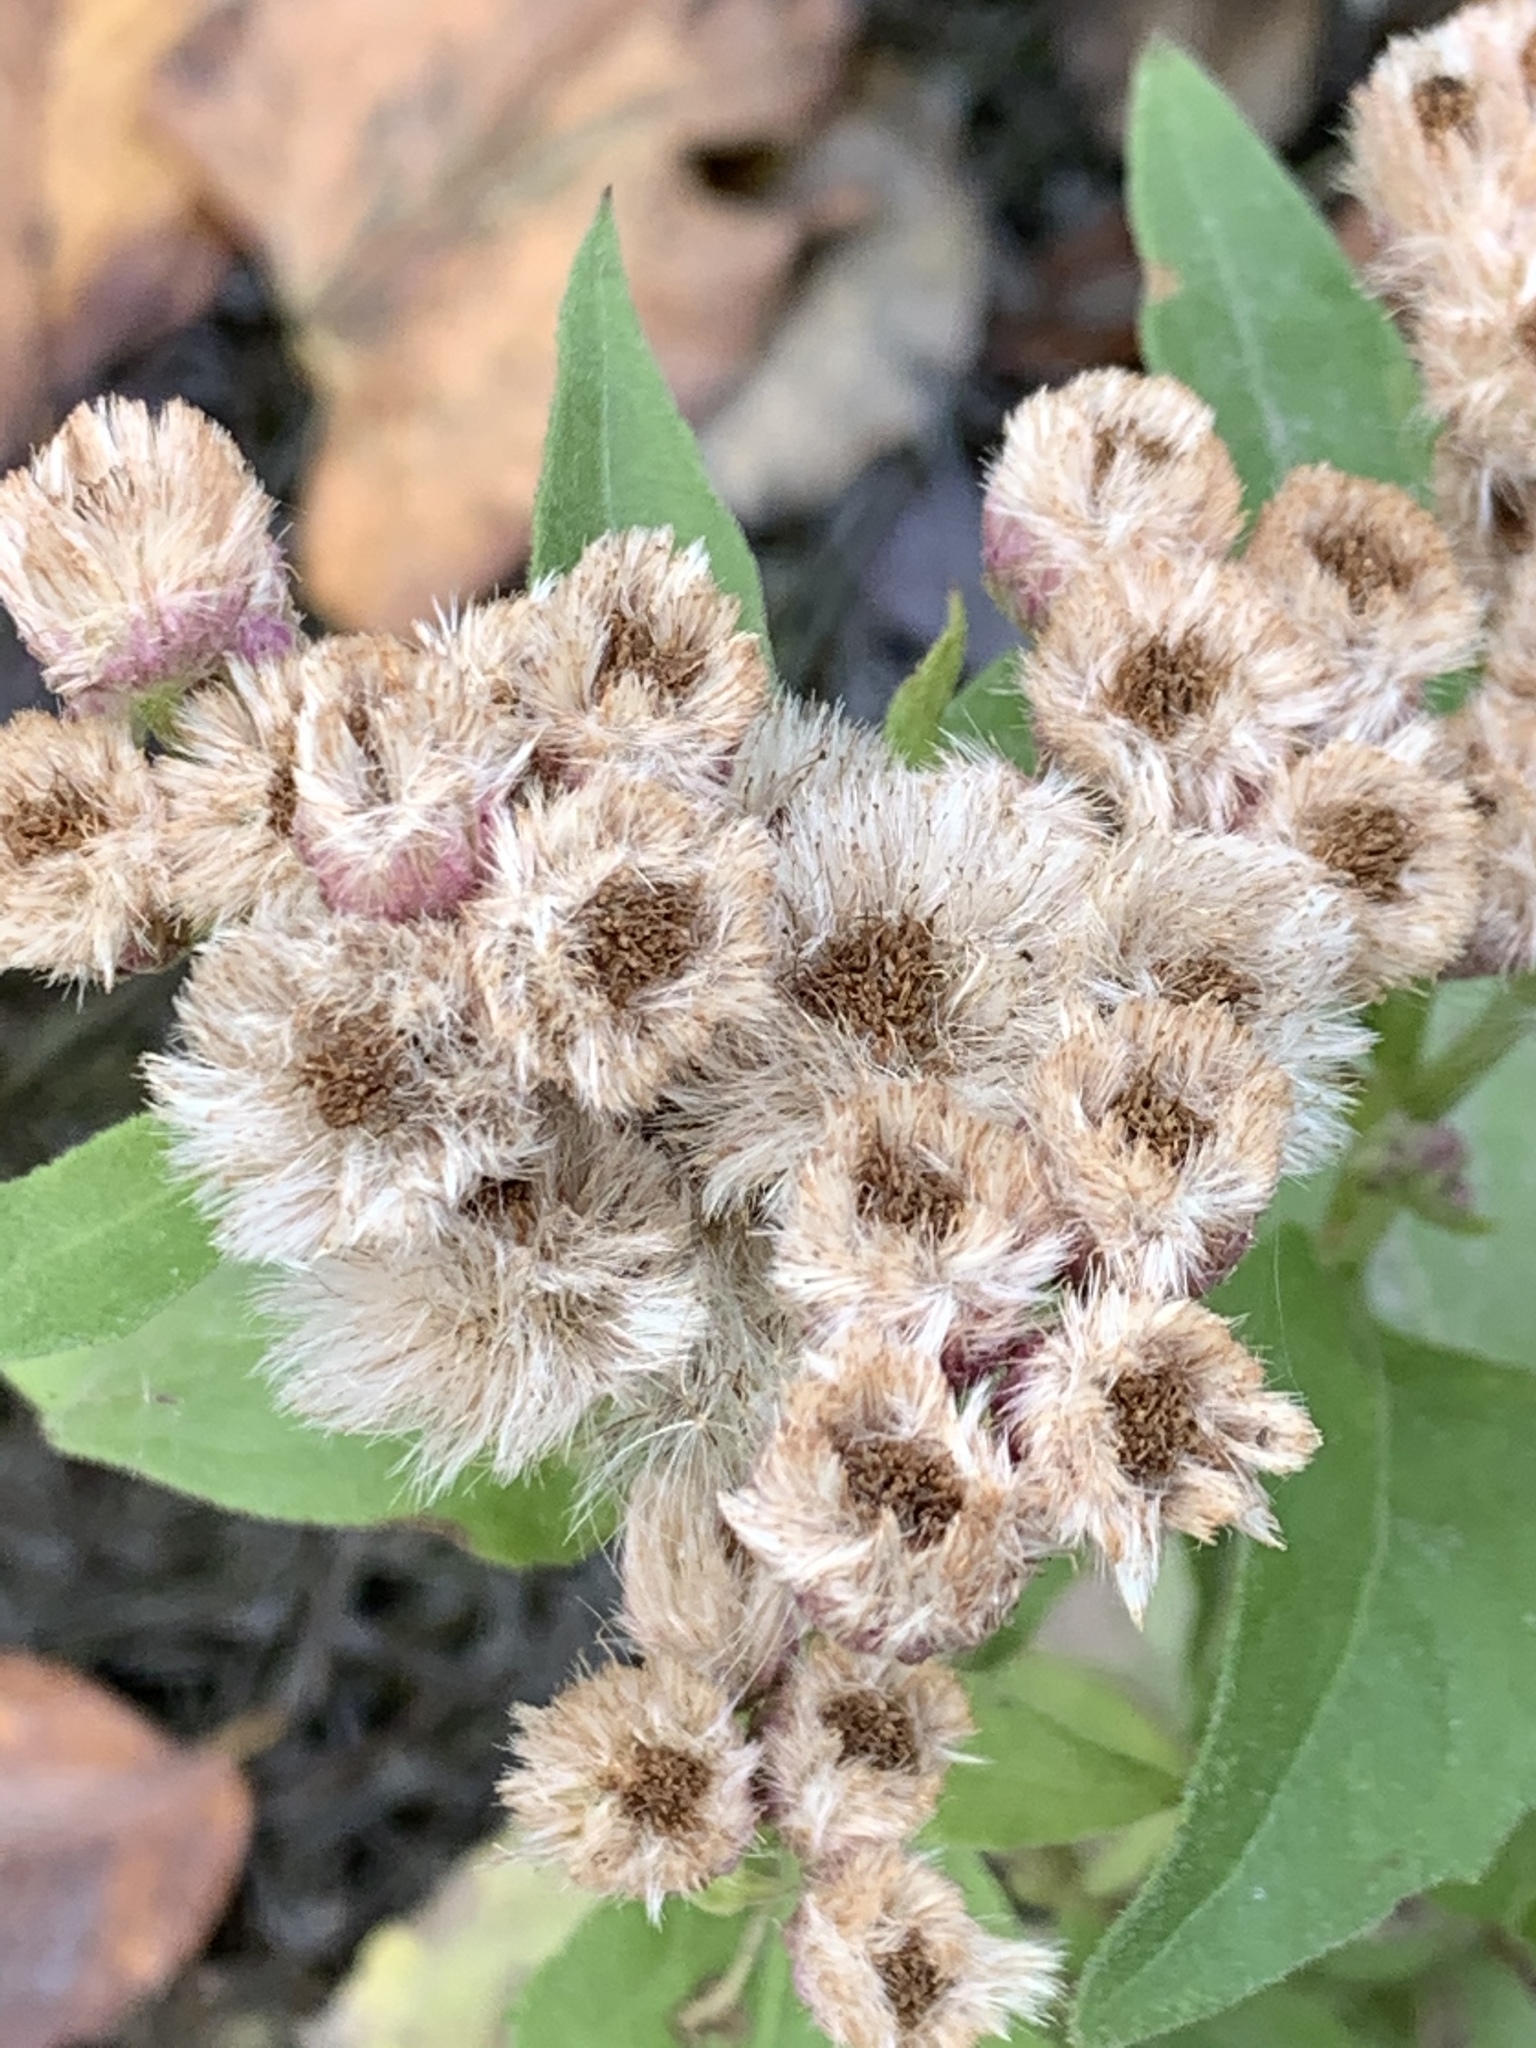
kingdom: Plantae
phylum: Tracheophyta
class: Magnoliopsida
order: Asterales
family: Asteraceae
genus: Pluchea
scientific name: Pluchea odorata
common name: Saltmarsh fleabane
